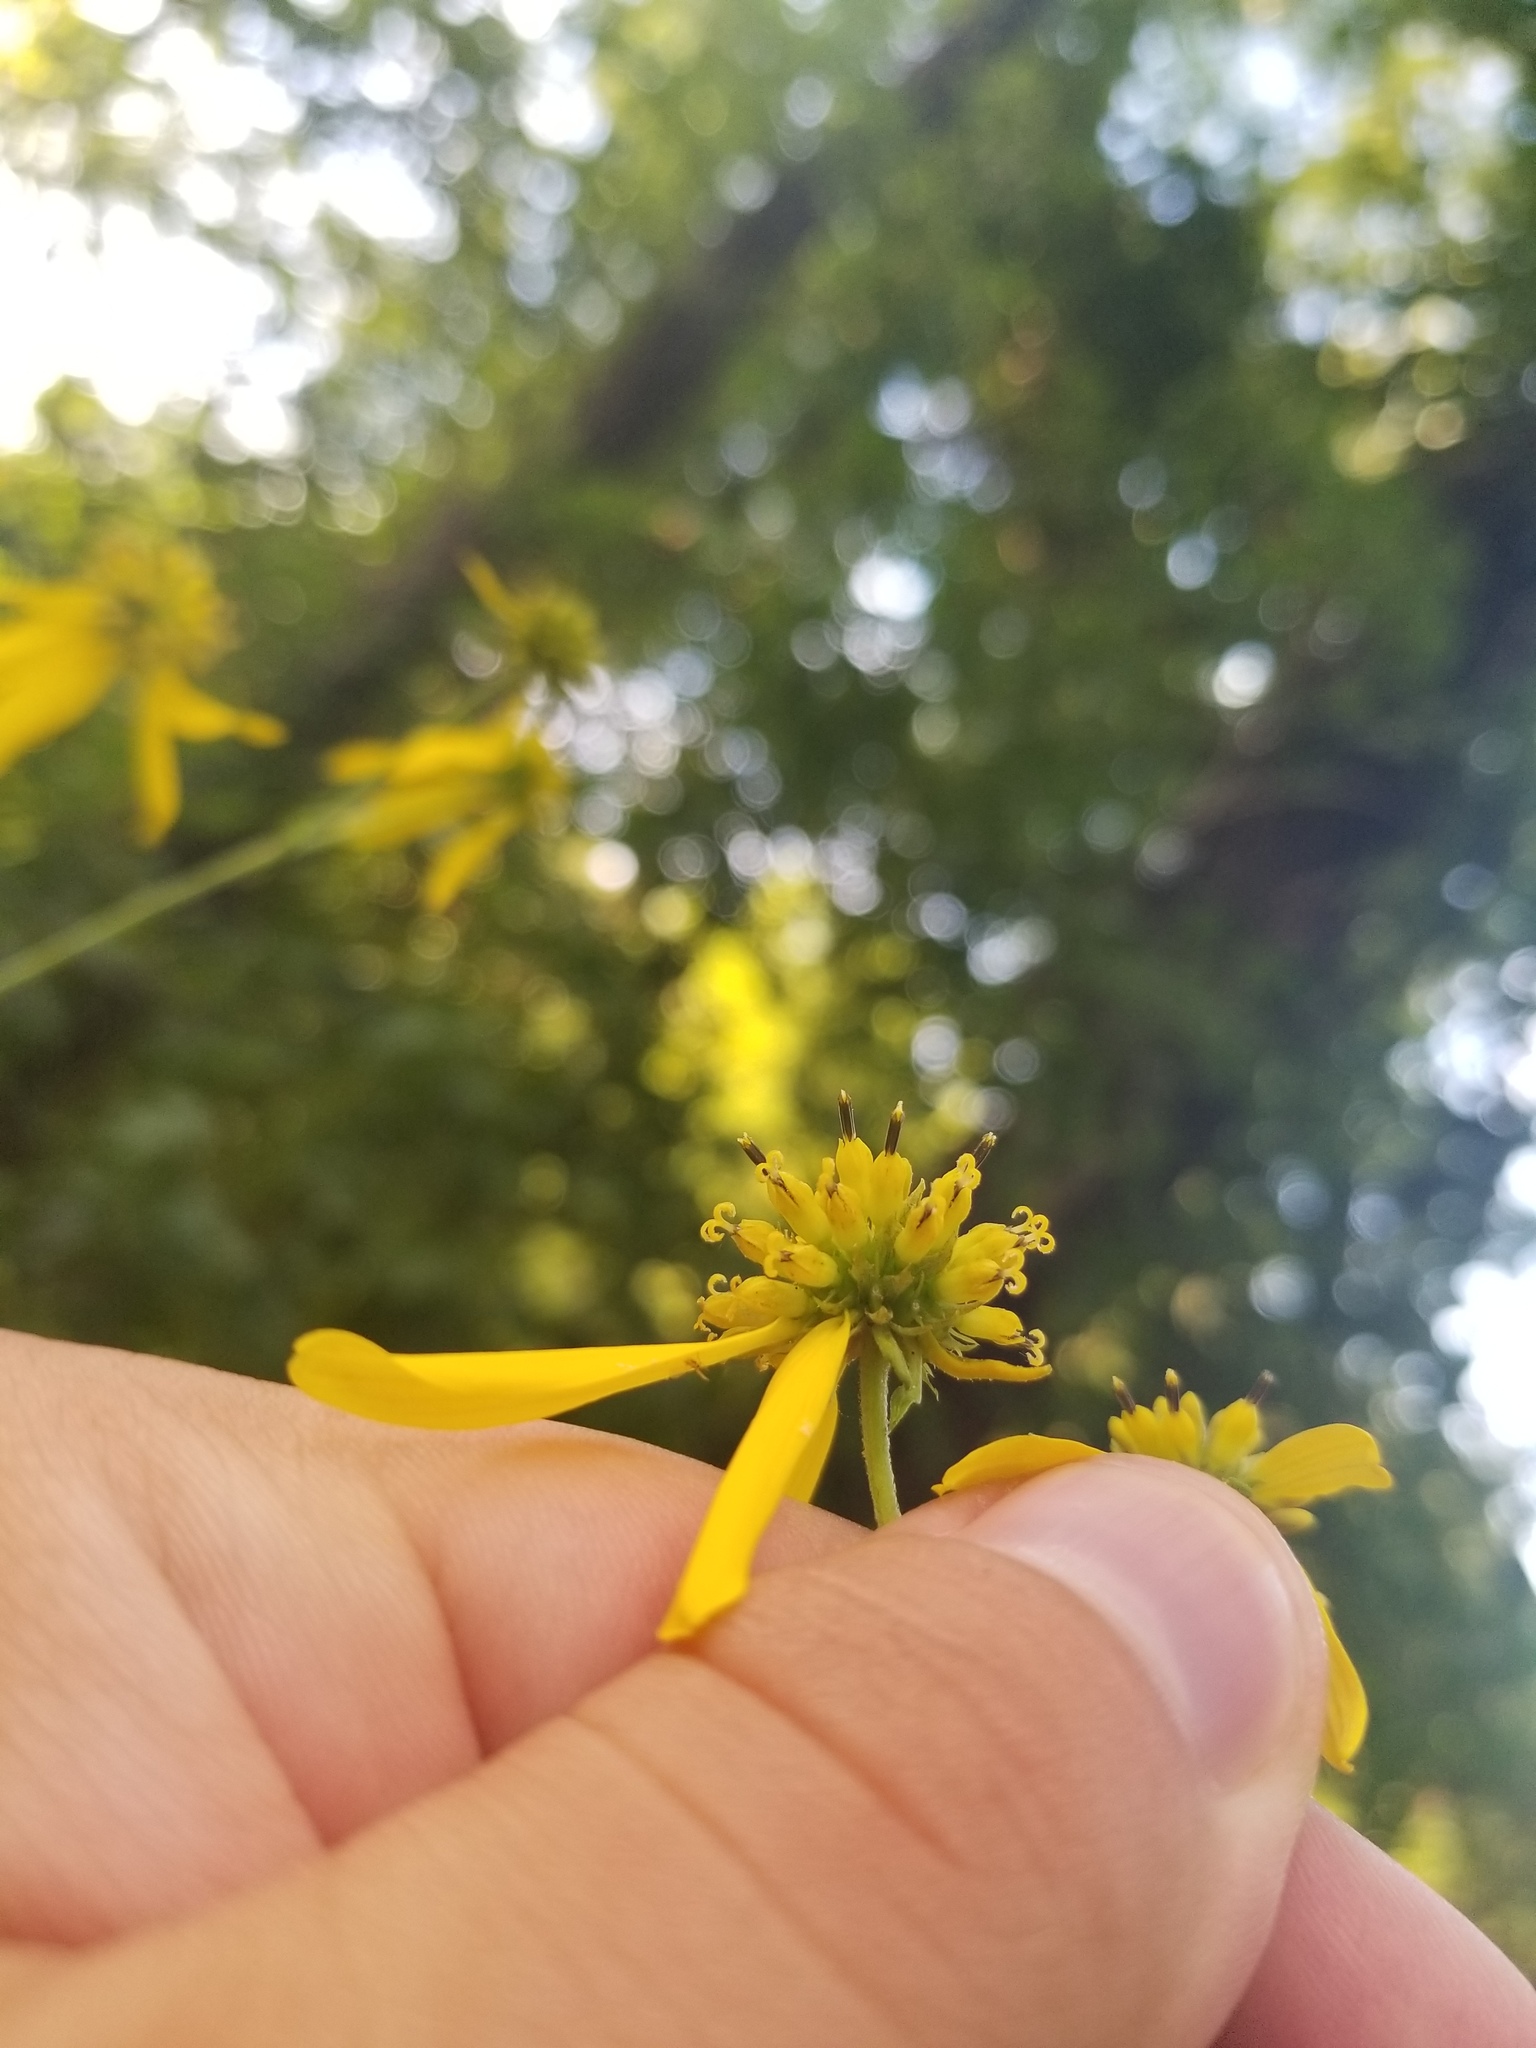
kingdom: Plantae
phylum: Tracheophyta
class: Magnoliopsida
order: Asterales
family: Asteraceae
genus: Verbesina
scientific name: Verbesina alternifolia
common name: Wingstem
